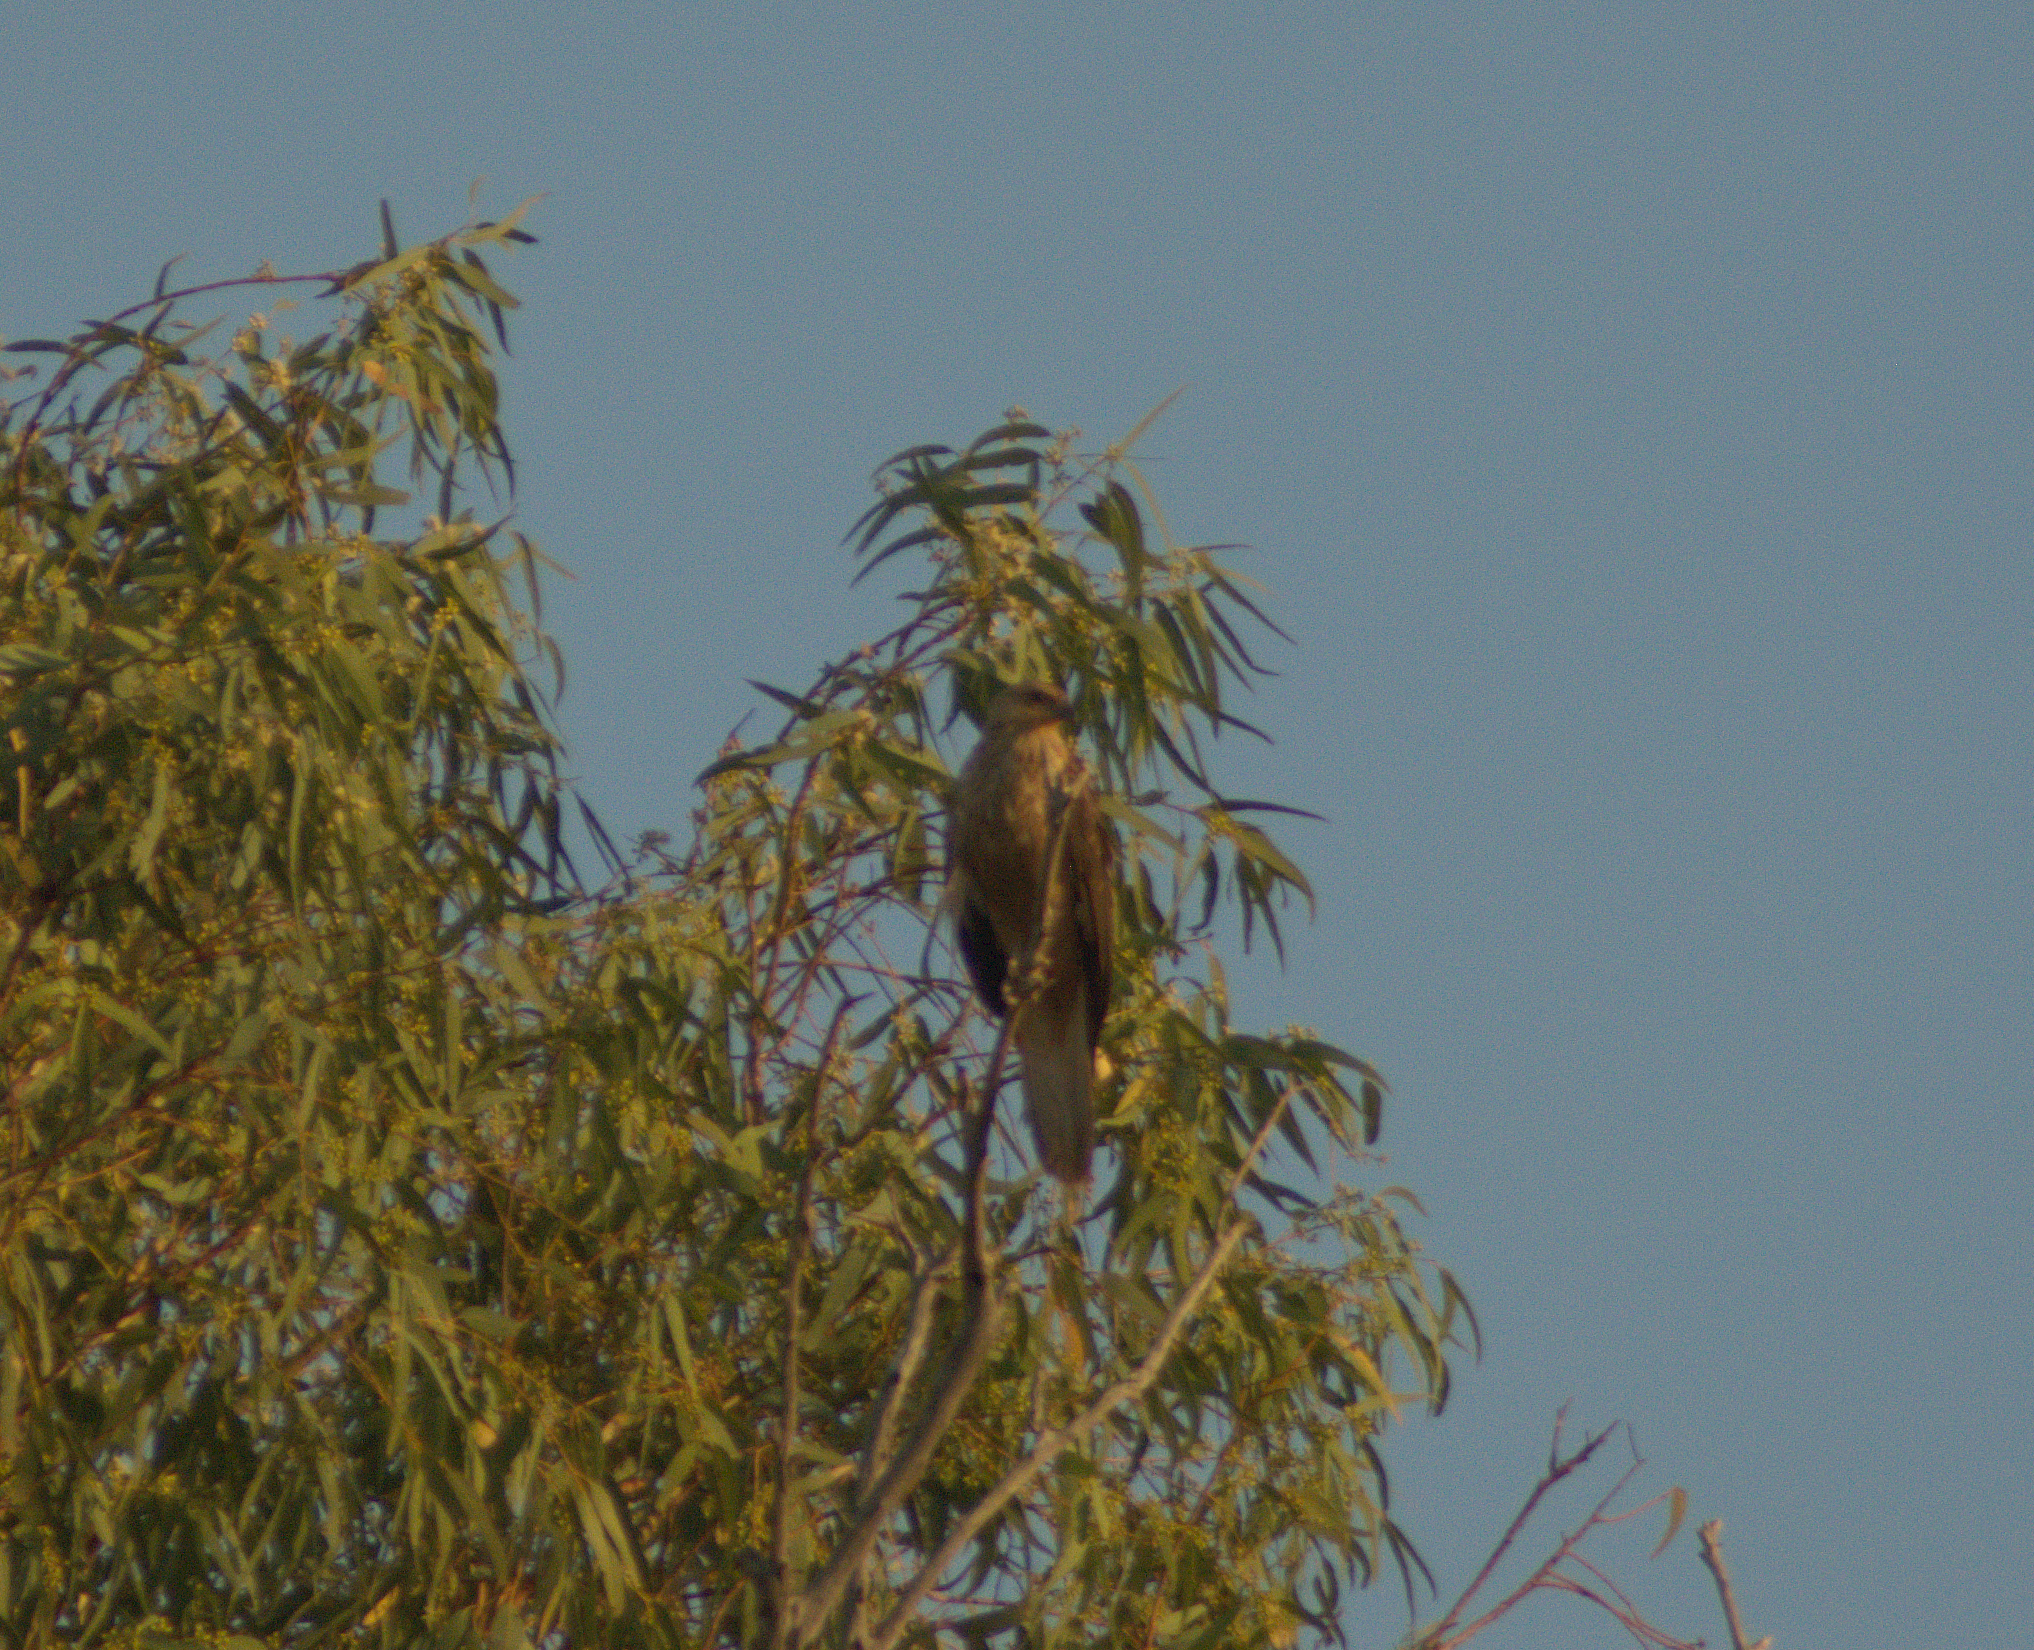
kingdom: Animalia
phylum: Chordata
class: Aves
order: Accipitriformes
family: Accipitridae
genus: Haliastur
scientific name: Haliastur sphenurus
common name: Whistling kite
